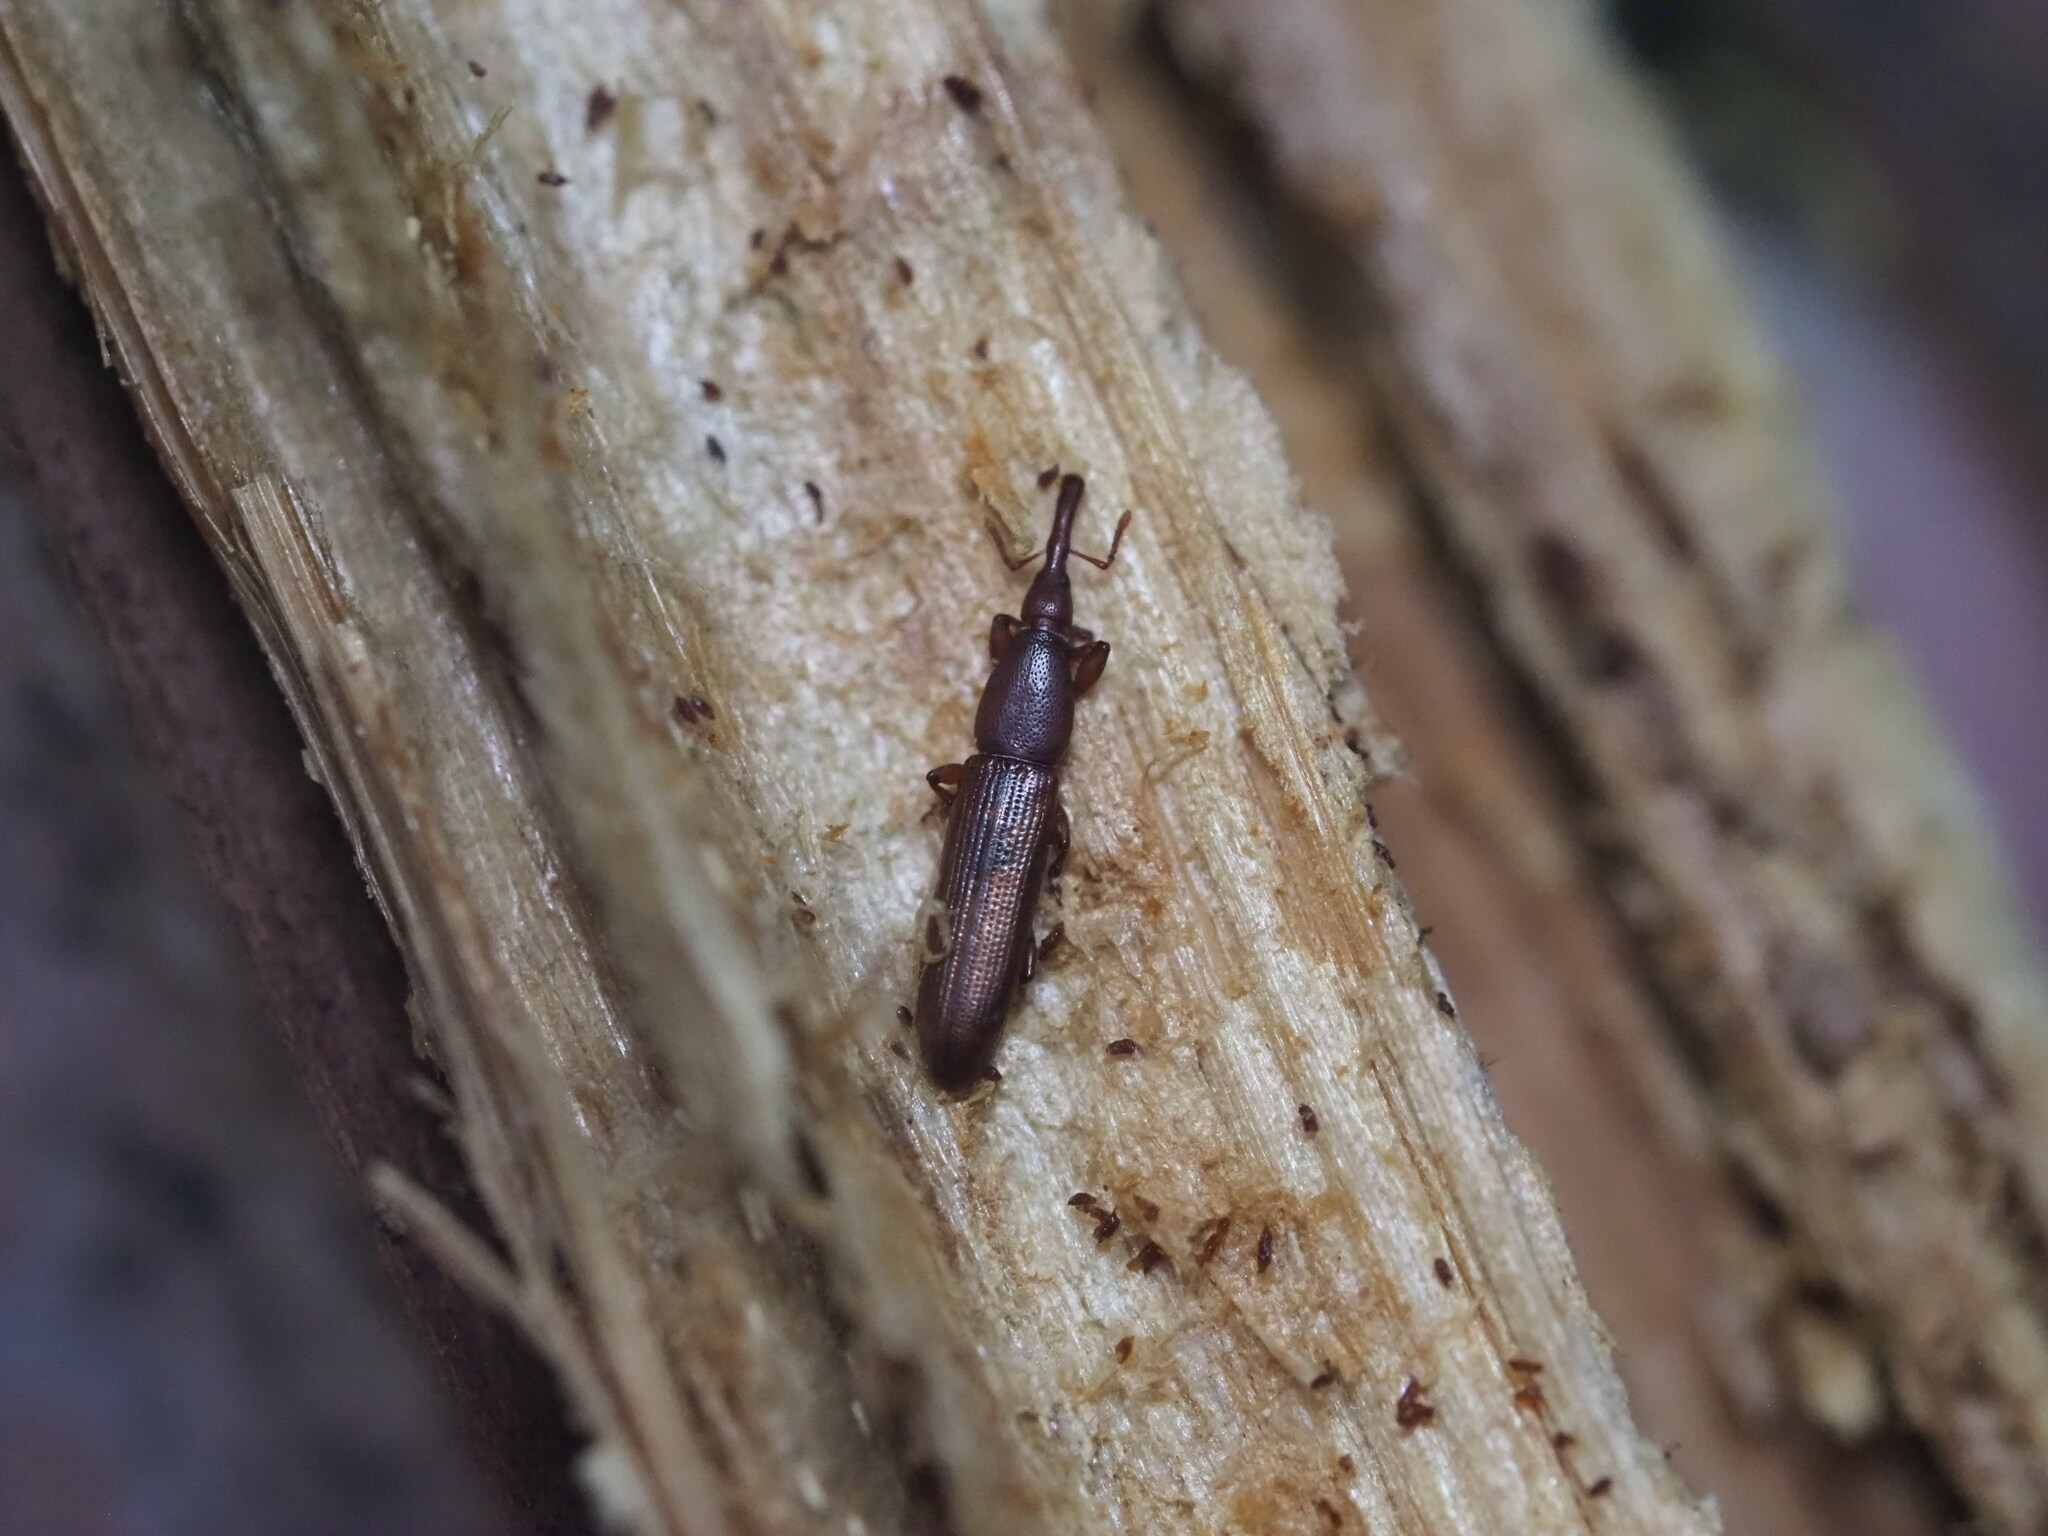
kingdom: Animalia
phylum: Arthropoda
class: Insecta
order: Coleoptera
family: Curculionidae
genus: Stenotrupis
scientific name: Stenotrupis prolixa
